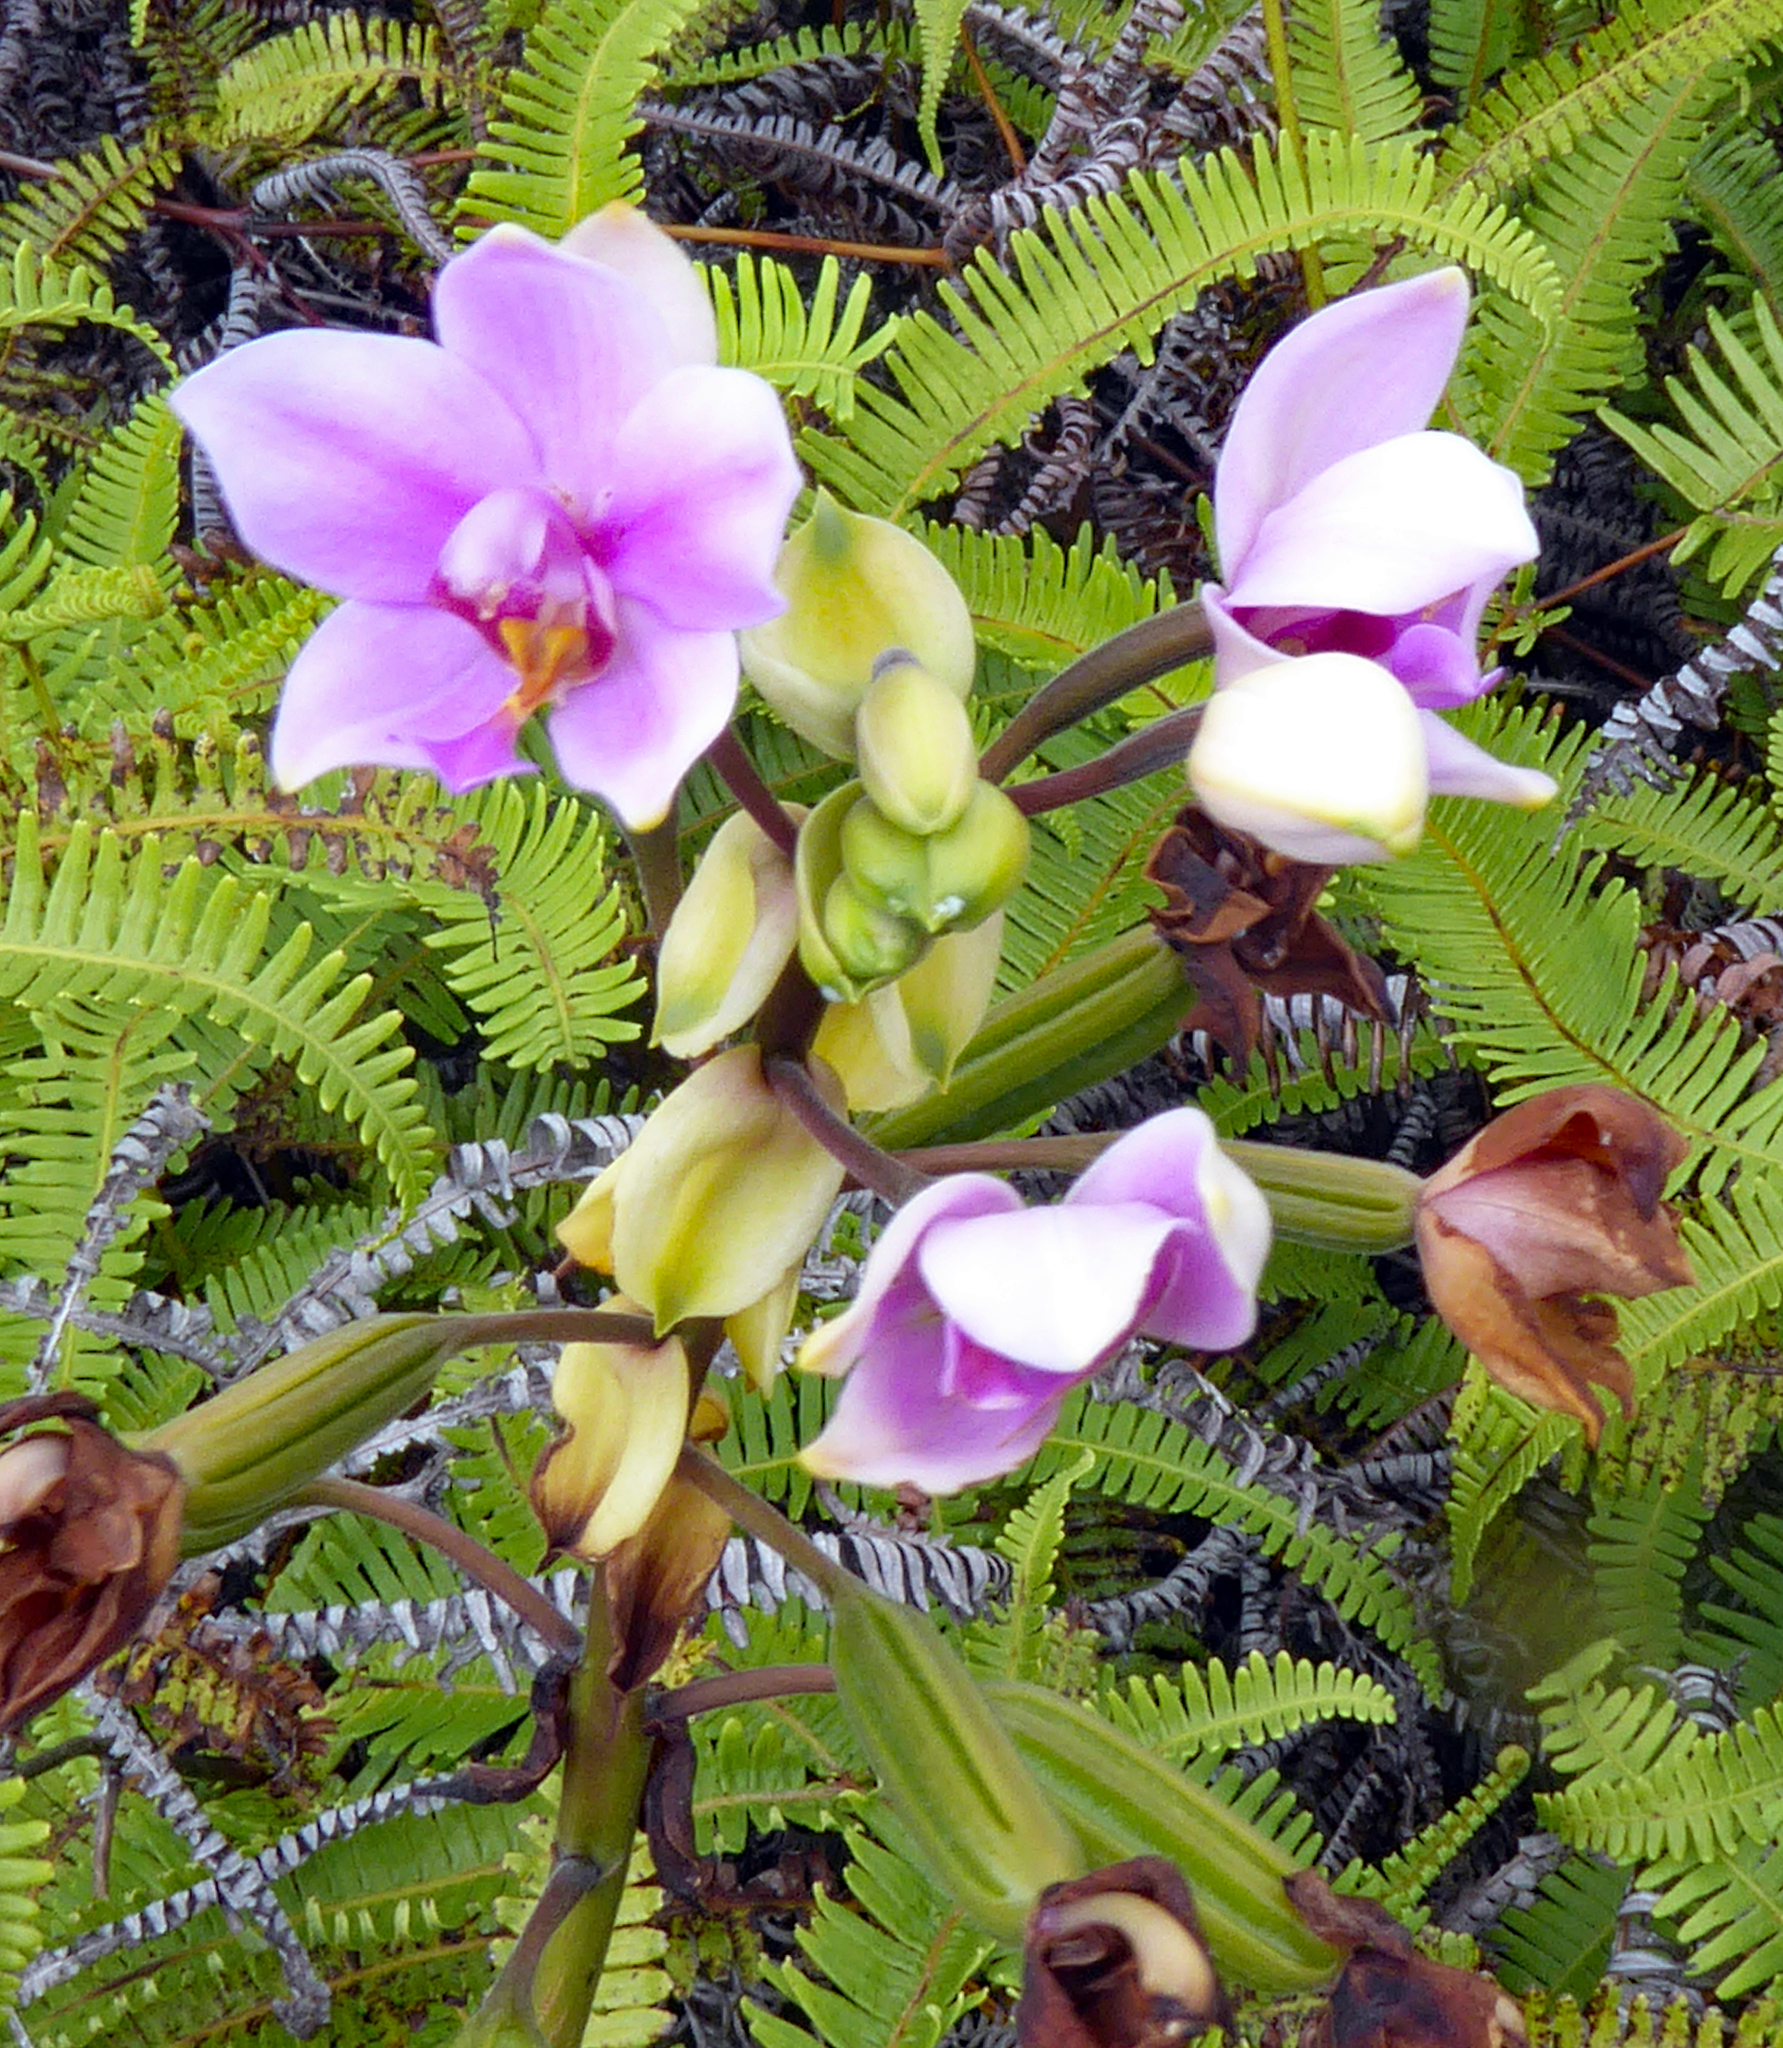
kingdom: Plantae
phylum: Tracheophyta
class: Liliopsida
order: Asparagales
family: Orchidaceae
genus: Spathoglottis
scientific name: Spathoglottis plicata
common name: Philippine ground orchid
